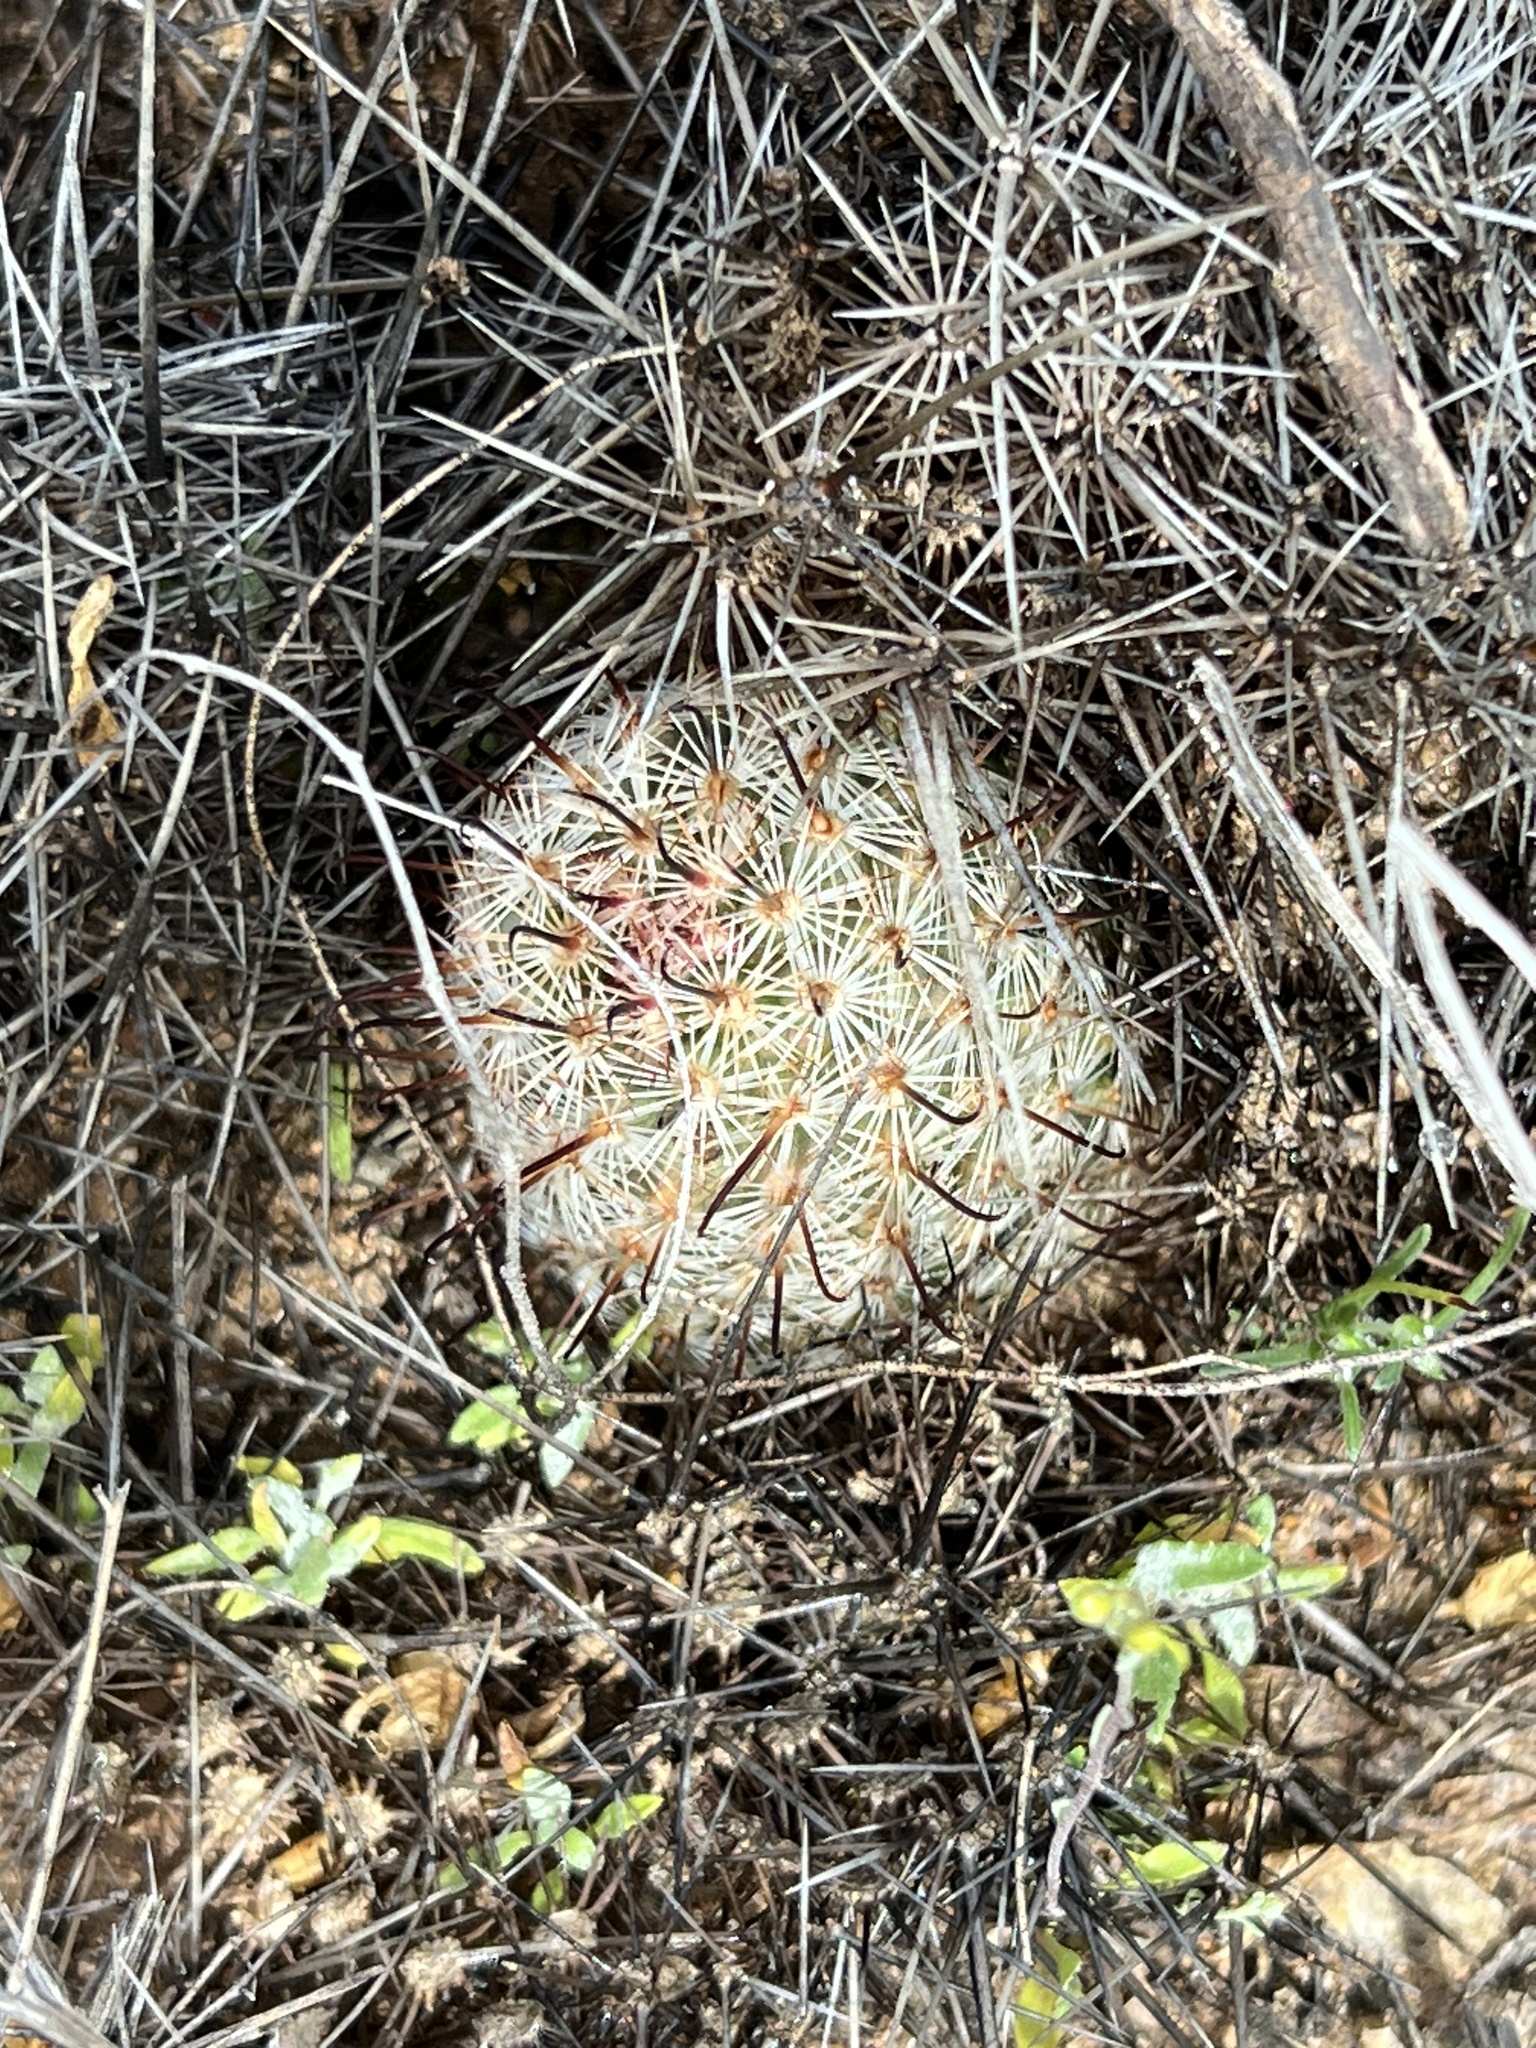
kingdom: Plantae
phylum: Tracheophyta
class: Magnoliopsida
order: Caryophyllales
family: Cactaceae
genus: Cochemiea
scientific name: Cochemiea grahamii
